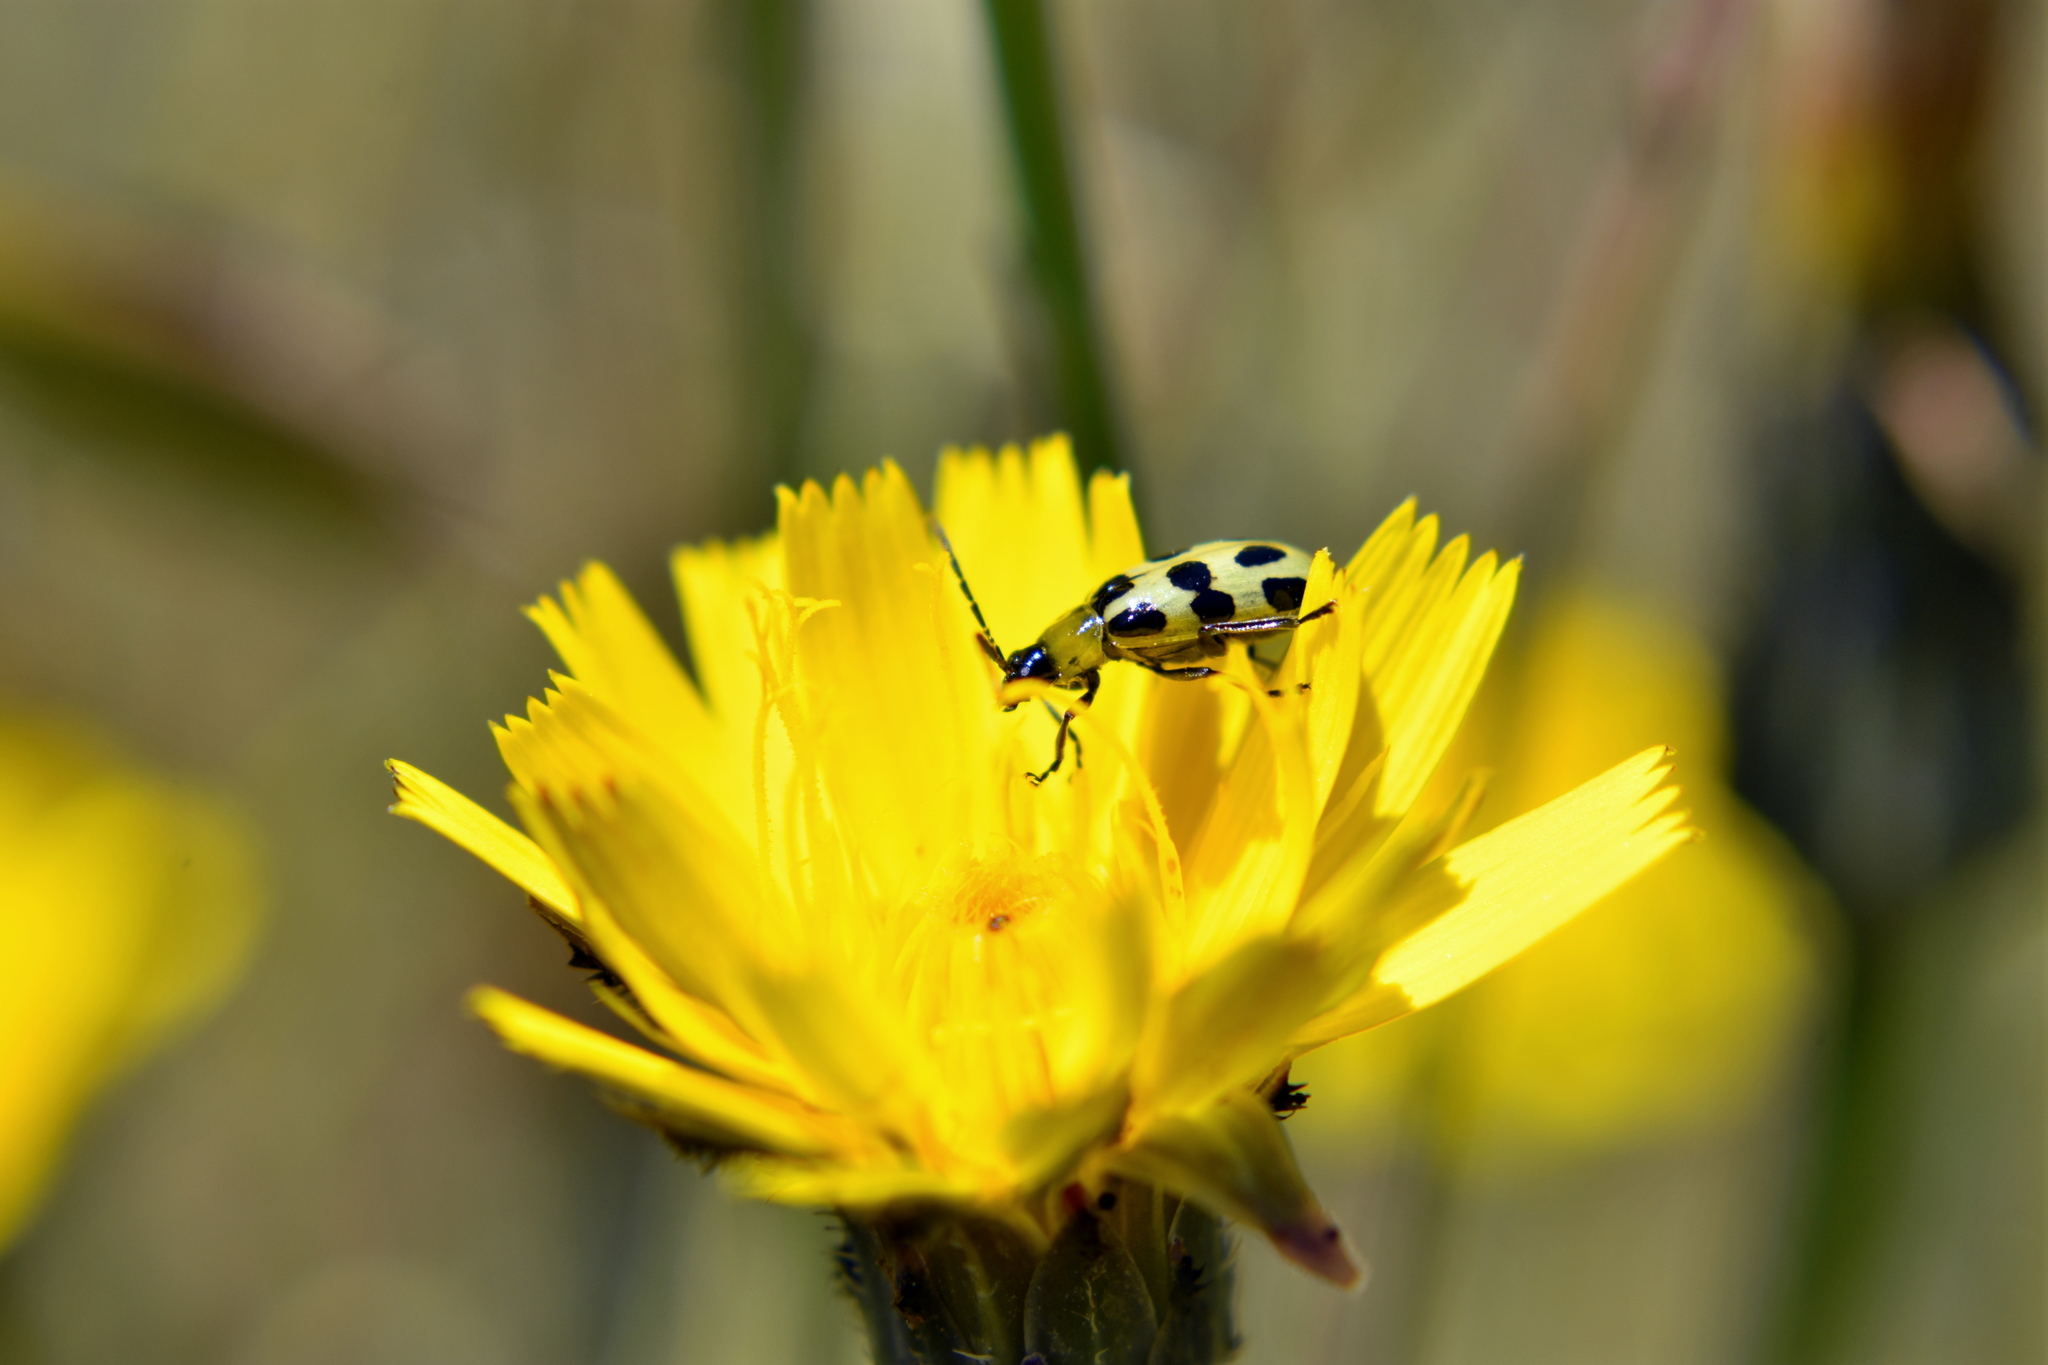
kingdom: Animalia
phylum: Arthropoda
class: Insecta
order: Coleoptera
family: Chrysomelidae
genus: Diabrotica
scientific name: Diabrotica undecimpunctata
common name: Spotted cucumber beetle
